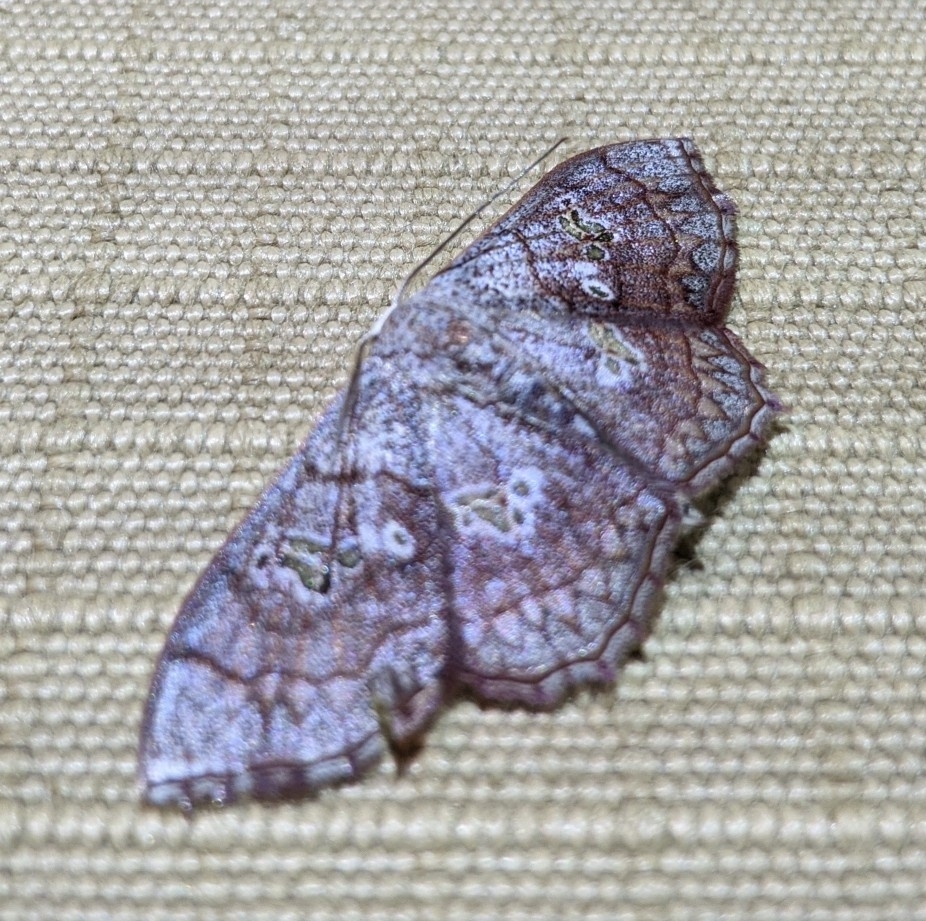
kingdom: Animalia
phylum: Arthropoda
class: Insecta
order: Lepidoptera
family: Geometridae
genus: Scopula
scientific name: Scopula
